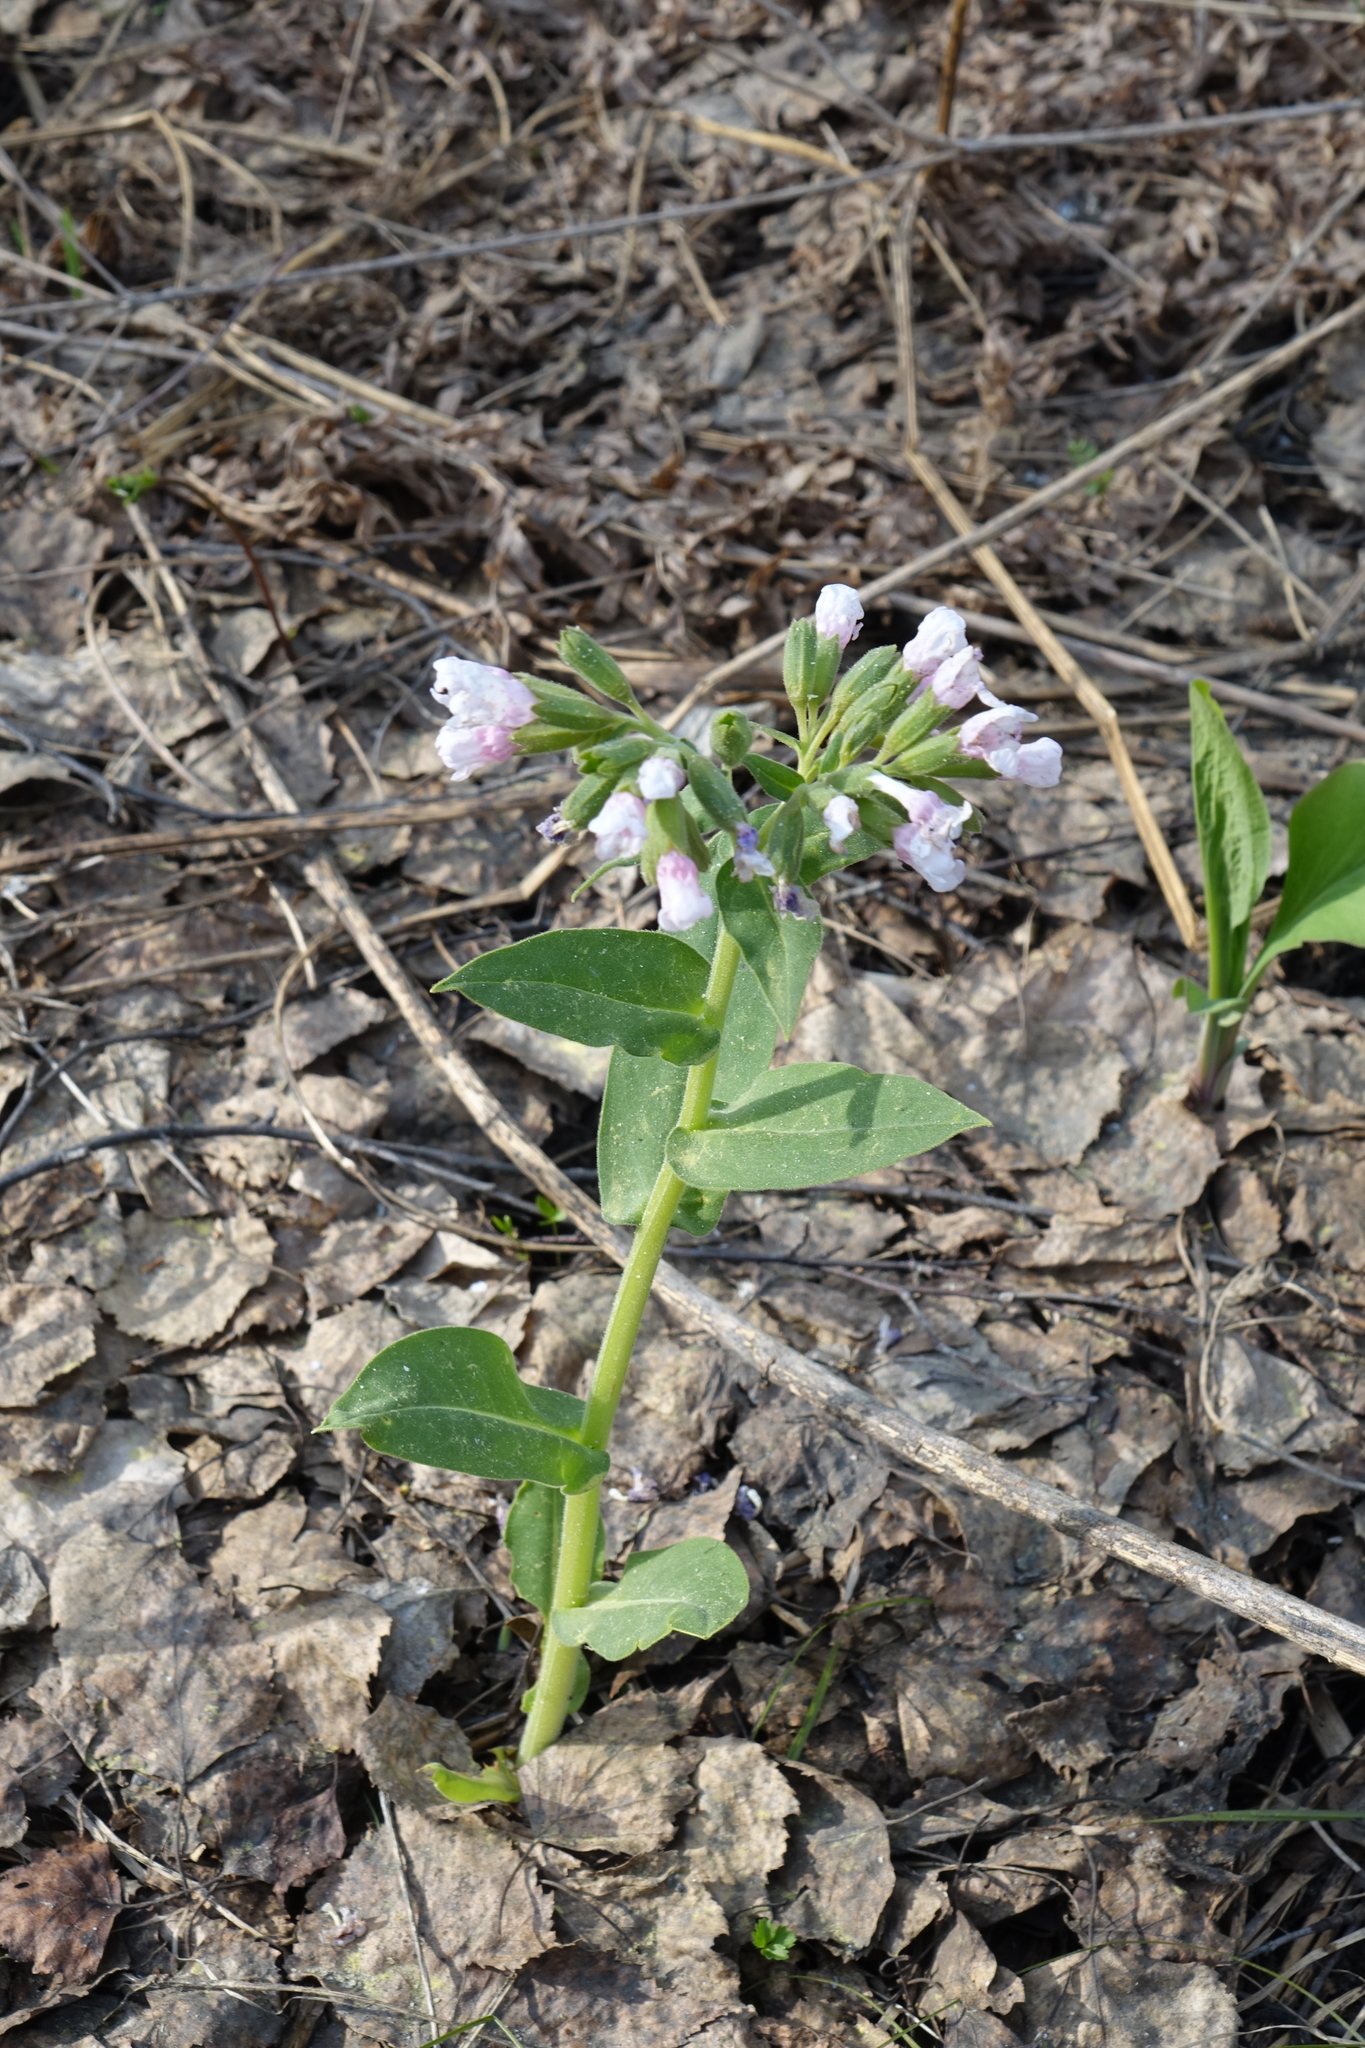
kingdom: Plantae
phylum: Tracheophyta
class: Magnoliopsida
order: Boraginales
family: Boraginaceae
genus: Pulmonaria
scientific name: Pulmonaria mollis
